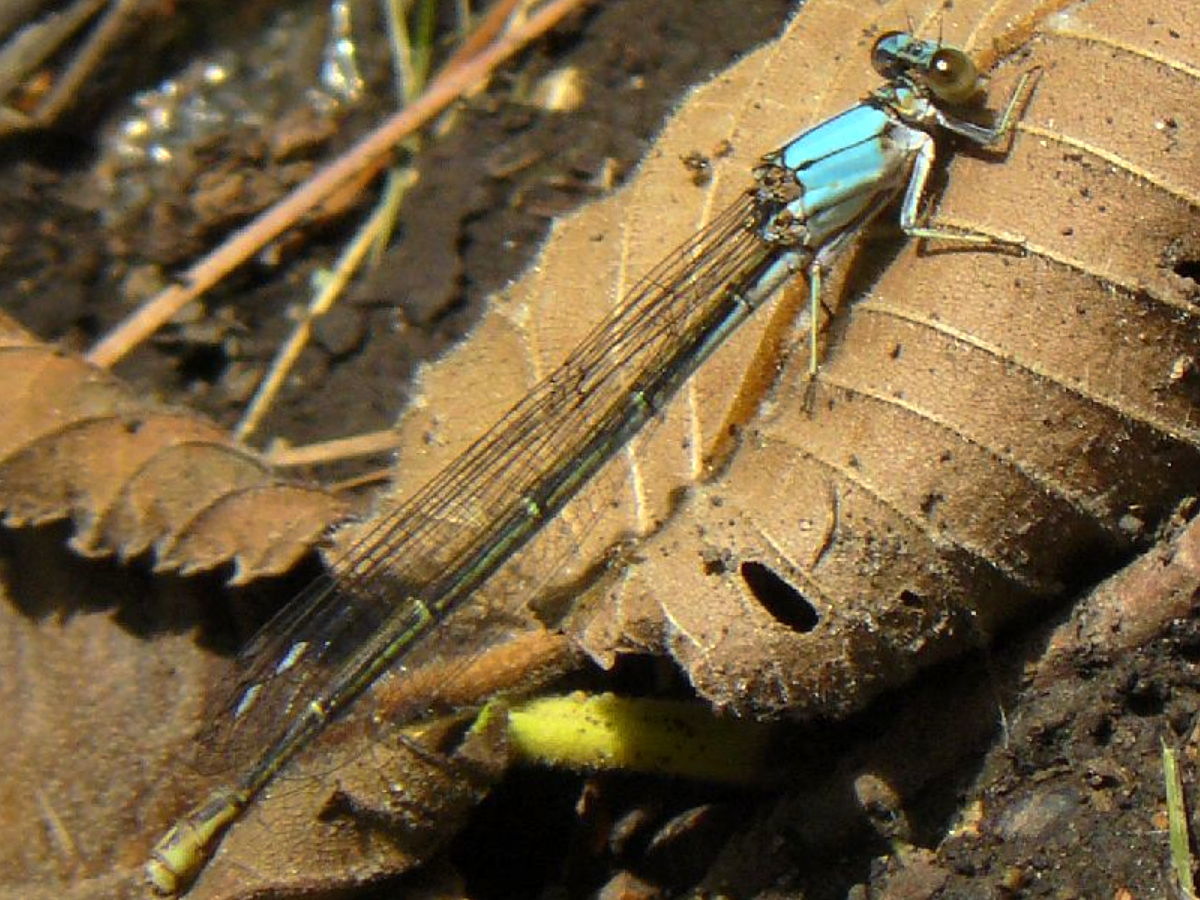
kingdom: Animalia
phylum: Arthropoda
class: Insecta
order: Odonata
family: Coenagrionidae
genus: Argia
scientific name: Argia moesta
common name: Powdered dancer
